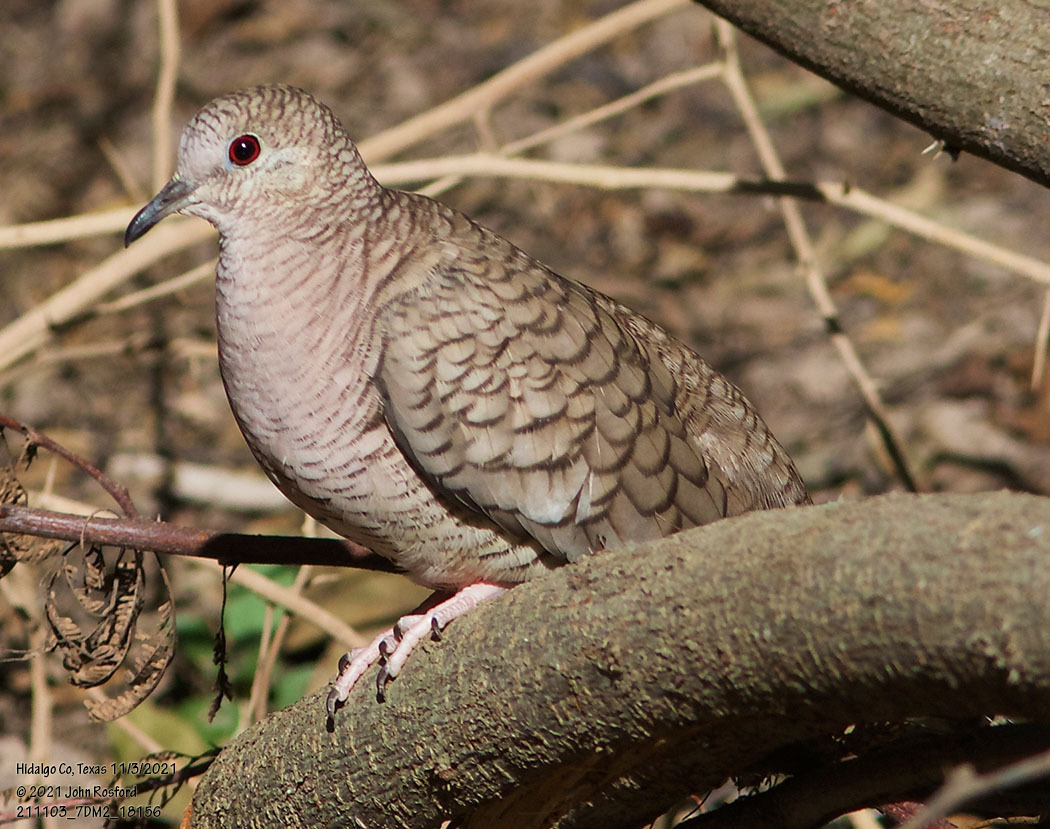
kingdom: Animalia
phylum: Chordata
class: Aves
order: Columbiformes
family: Columbidae
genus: Columbina
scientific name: Columbina inca
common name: Inca dove
